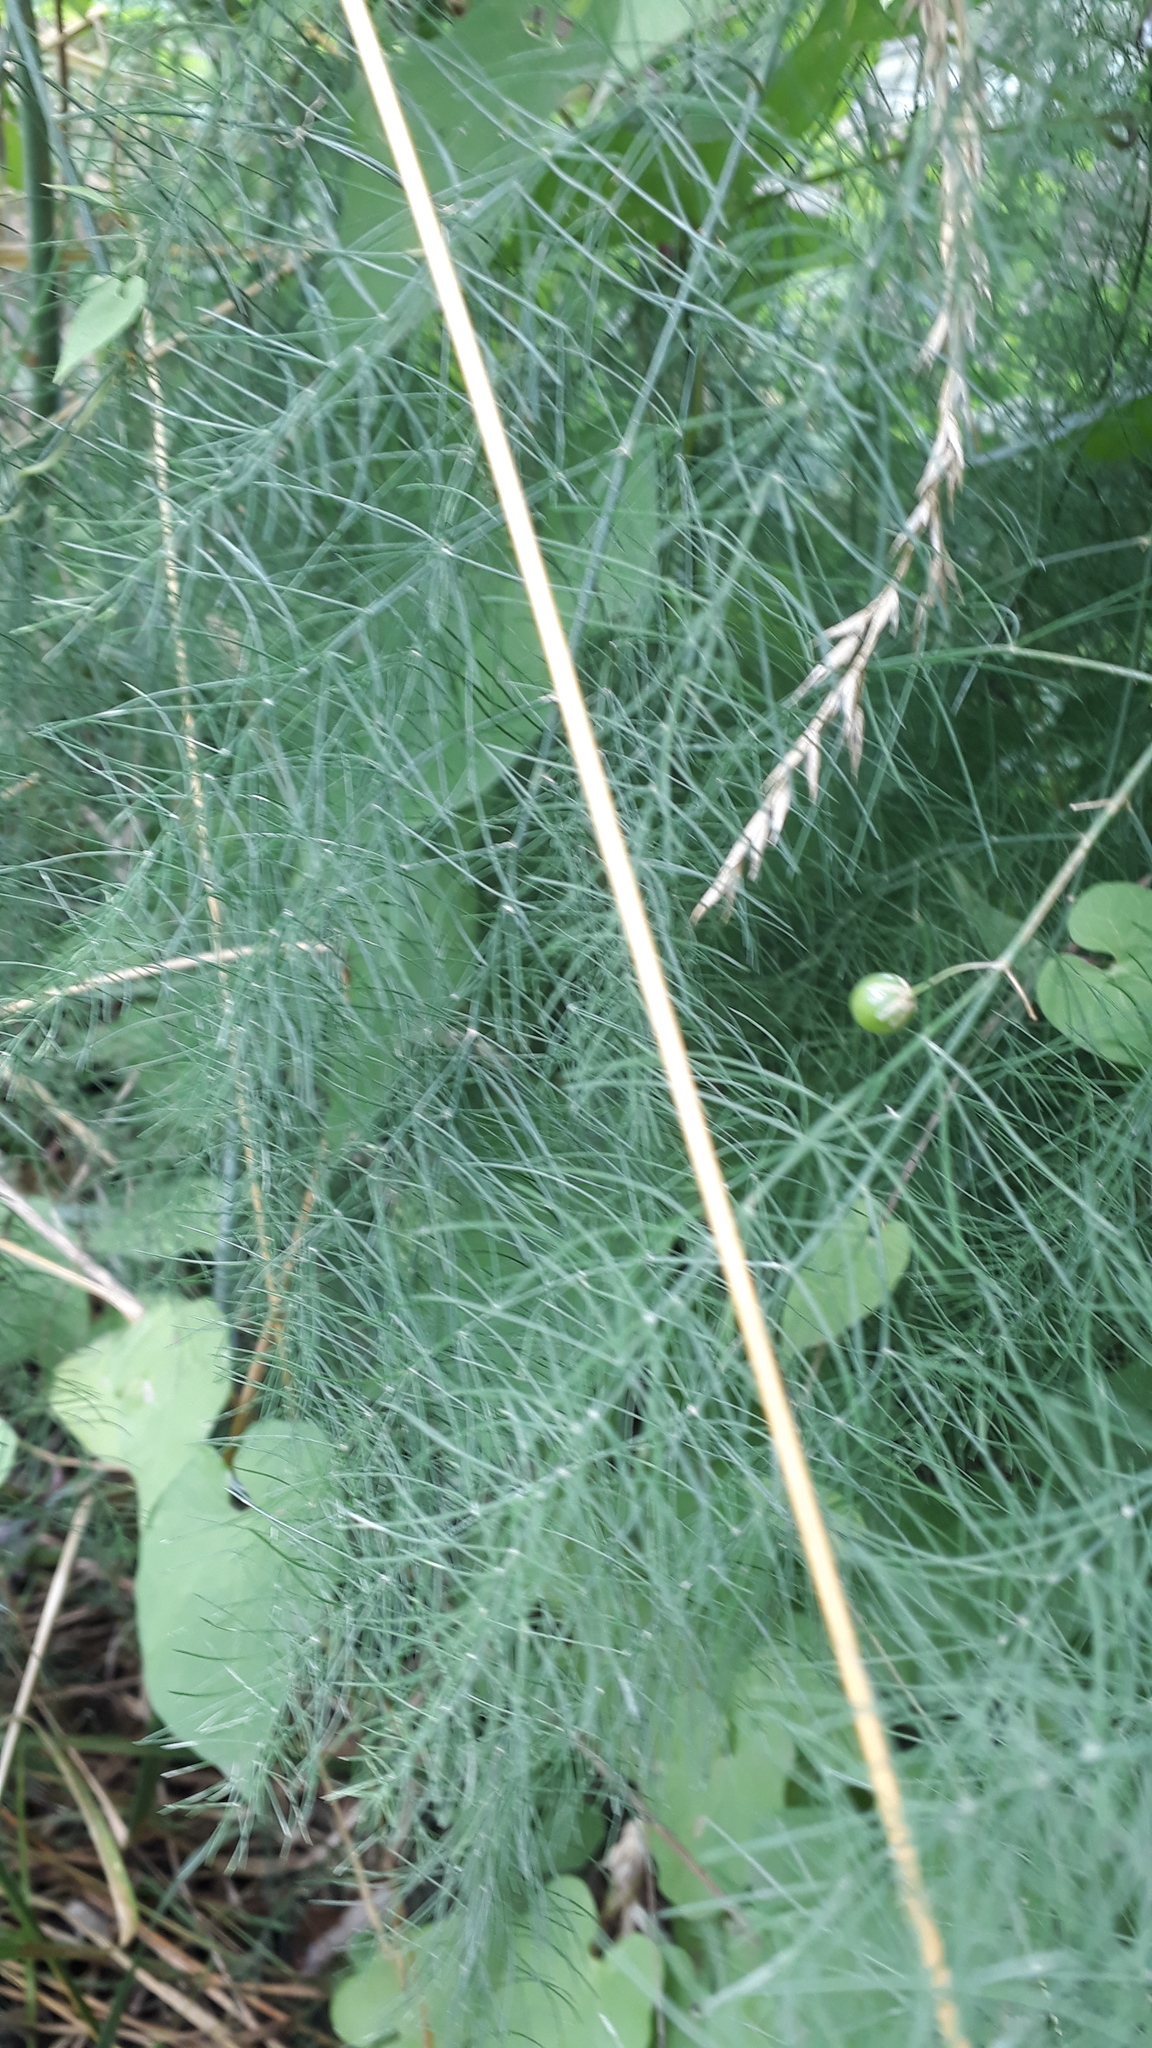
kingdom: Plantae
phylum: Tracheophyta
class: Liliopsida
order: Asparagales
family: Asparagaceae
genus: Asparagus
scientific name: Asparagus officinalis
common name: Garden asparagus
